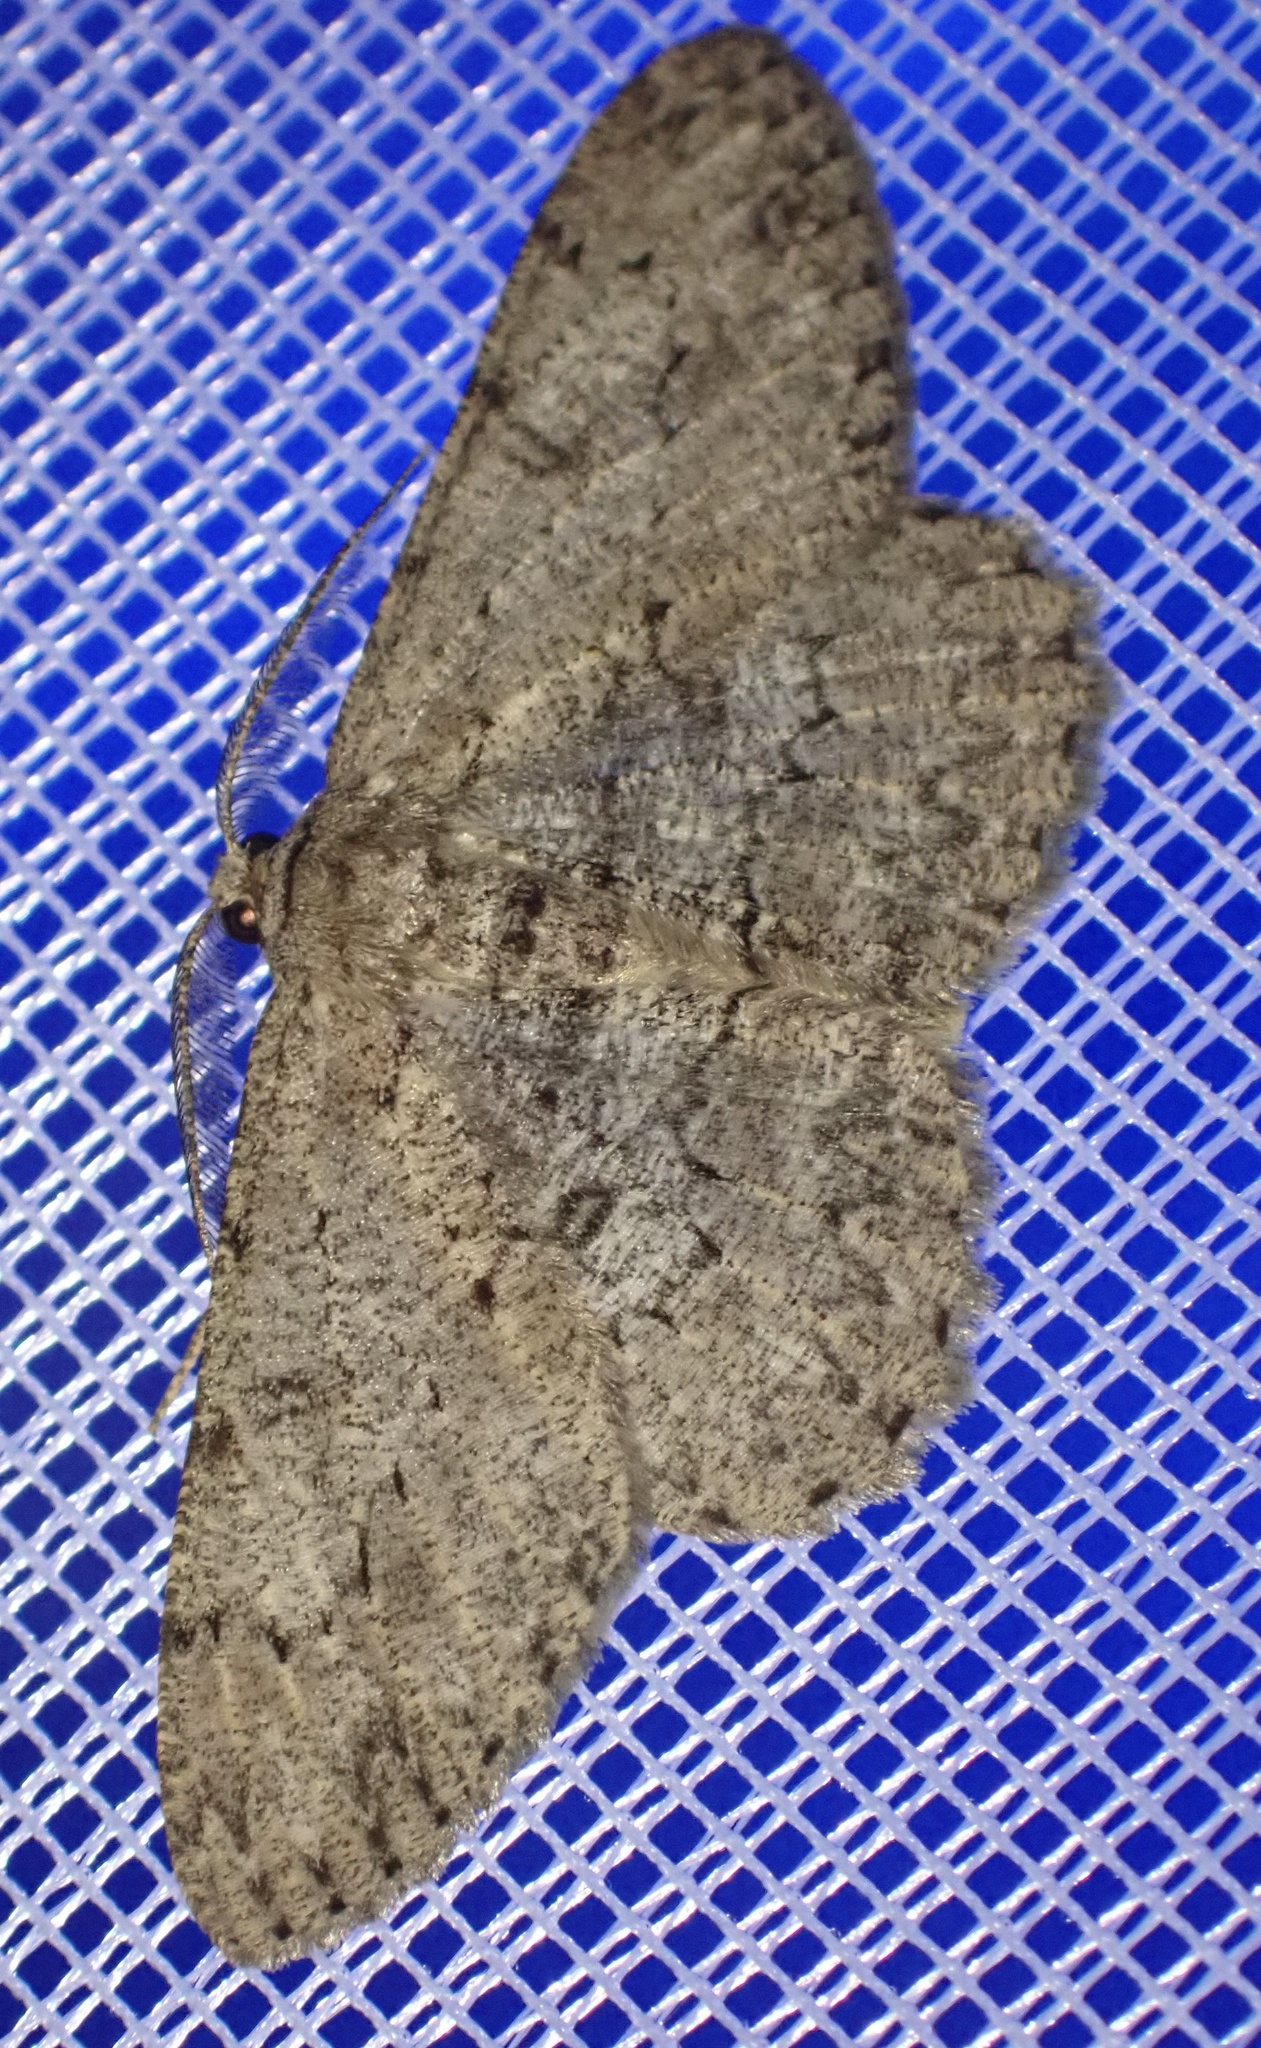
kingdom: Animalia
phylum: Arthropoda
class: Insecta
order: Lepidoptera
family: Geometridae
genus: Hypomecis
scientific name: Hypomecis punctinalis
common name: Pale oak beauty
